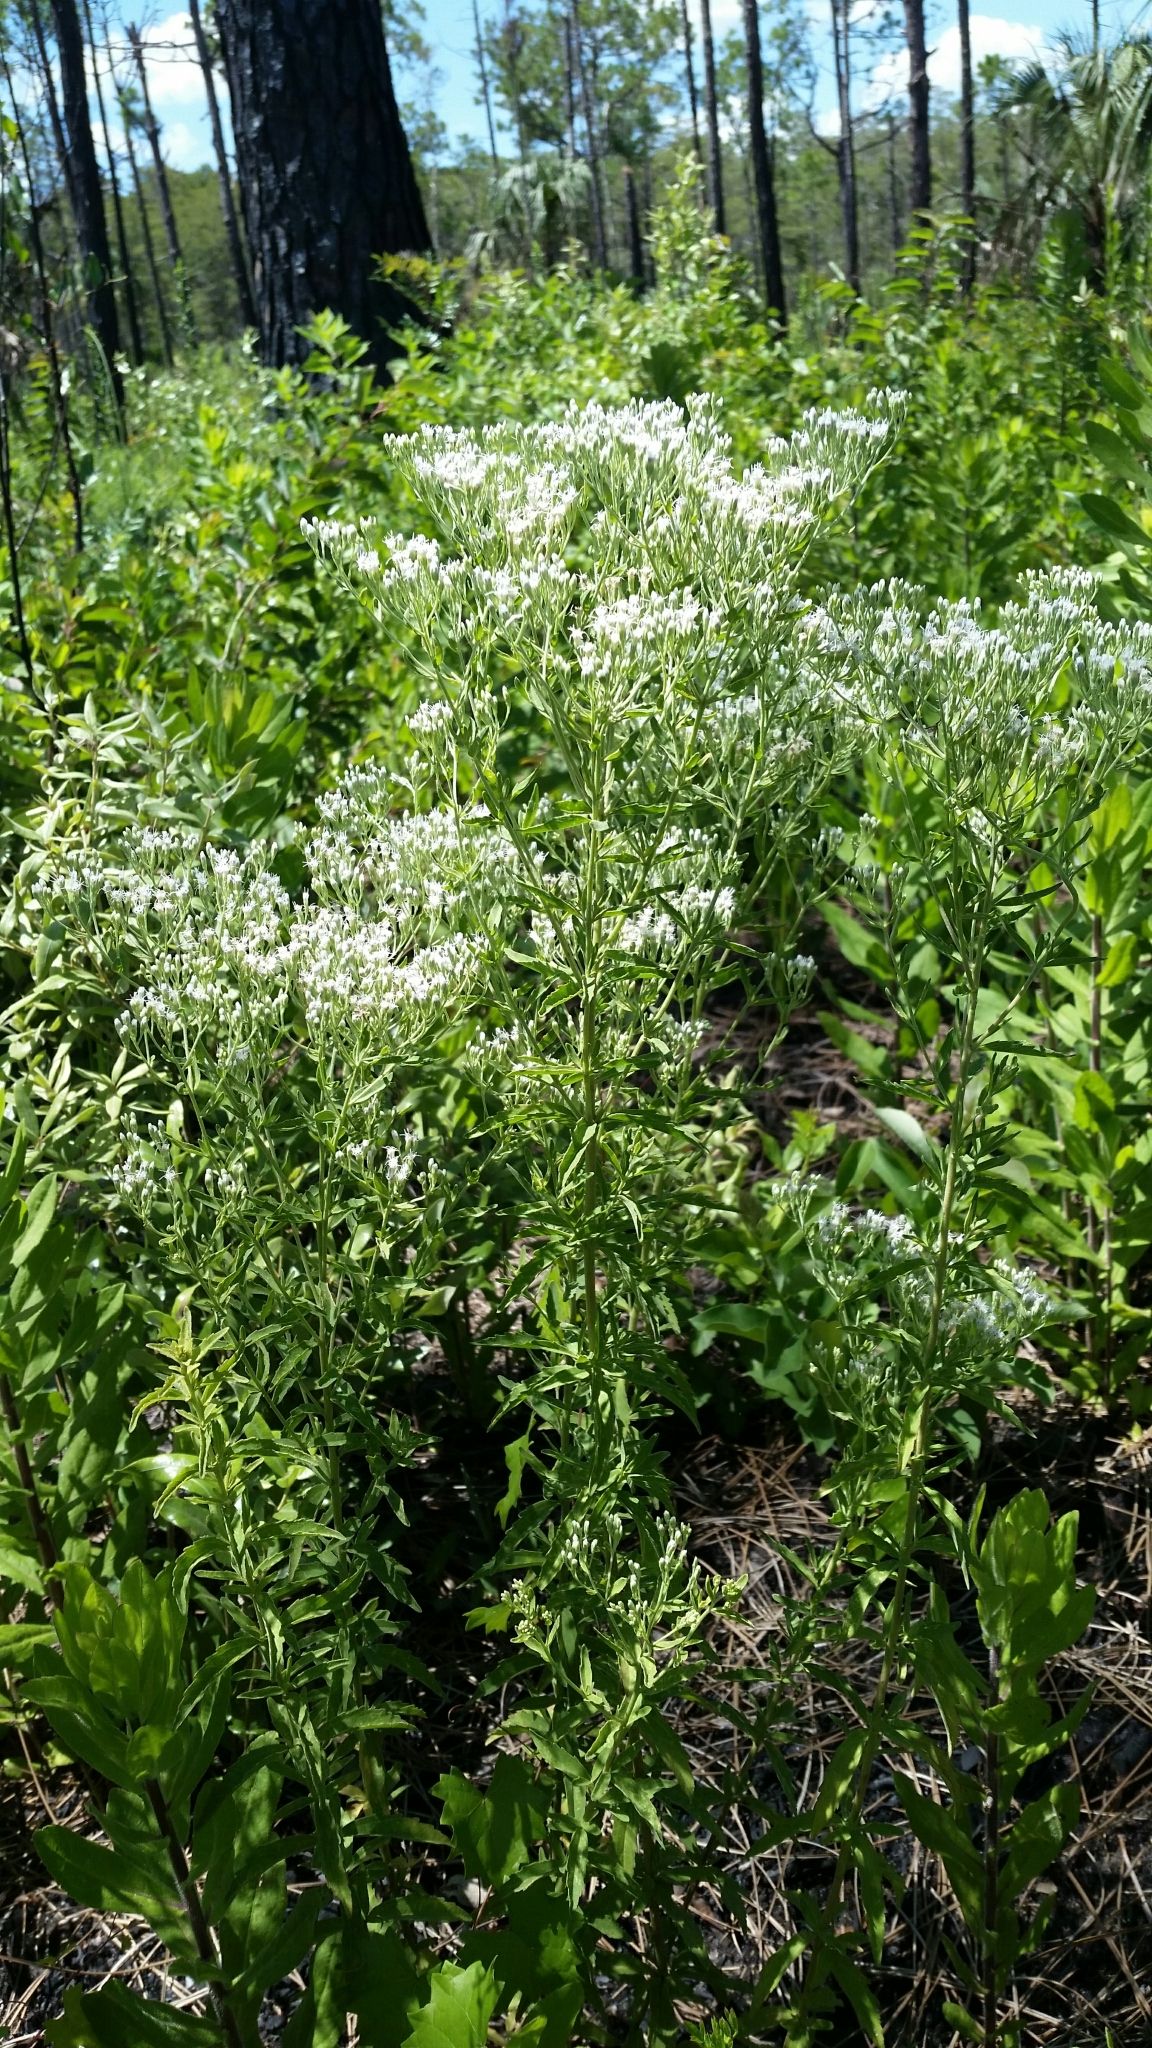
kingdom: Plantae
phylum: Tracheophyta
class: Magnoliopsida
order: Asterales
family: Asteraceae
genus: Eupatorium
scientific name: Eupatorium mohrii
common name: Mohr's thoroughwort
